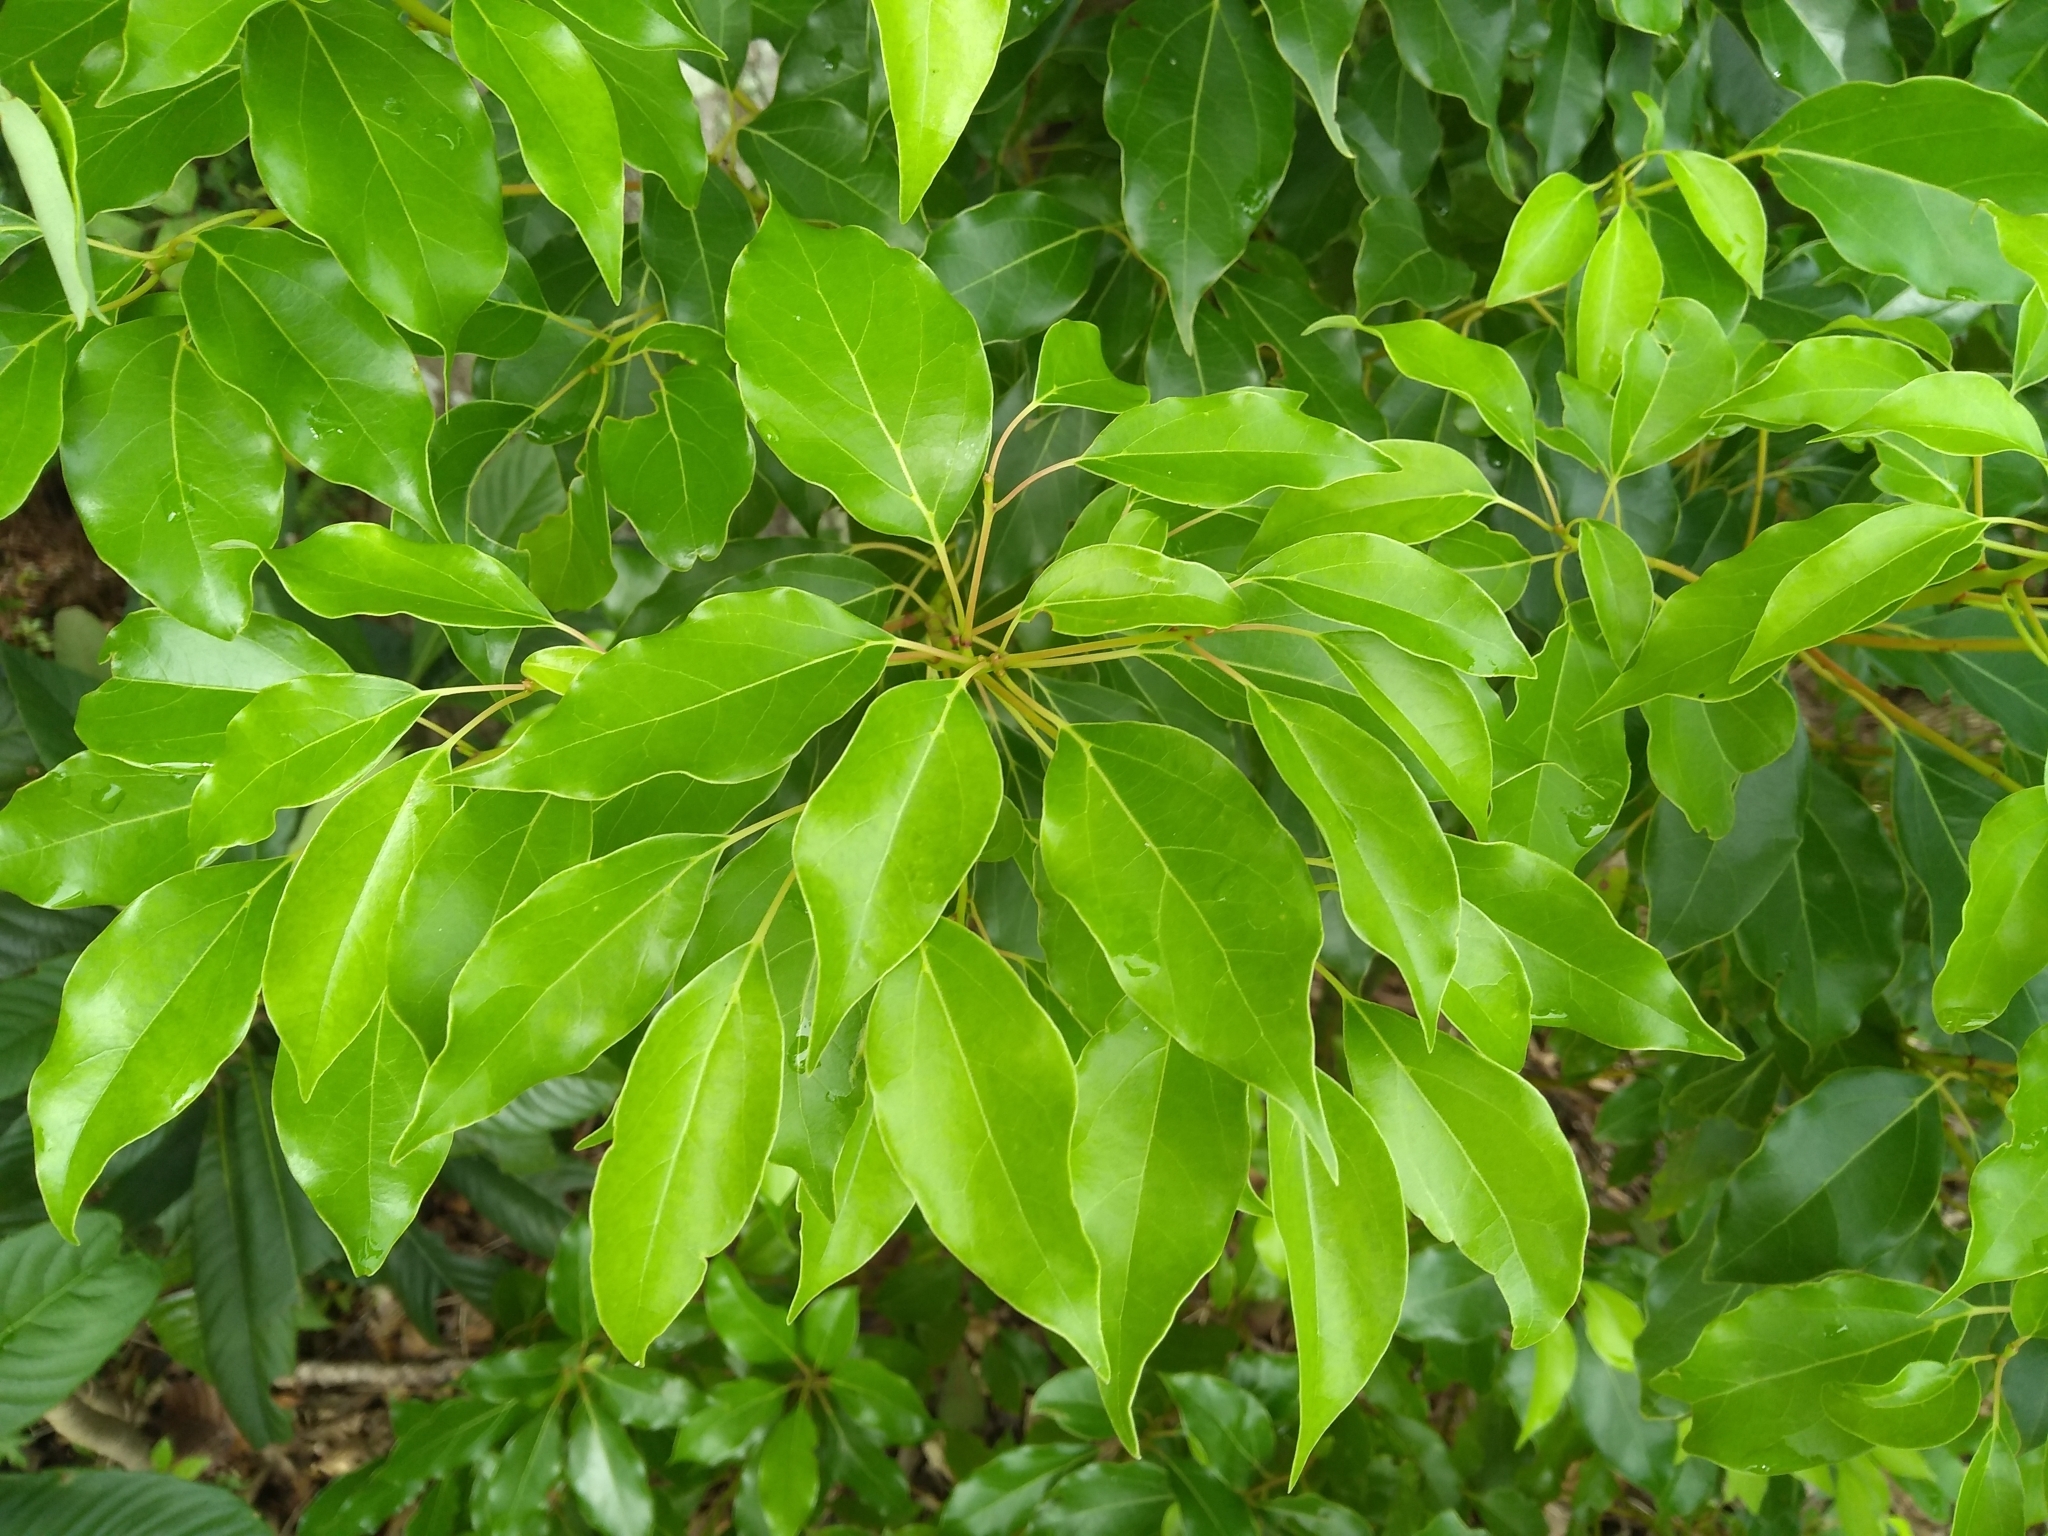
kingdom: Plantae
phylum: Tracheophyta
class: Magnoliopsida
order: Laurales
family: Lauraceae
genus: Cinnamomum
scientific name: Cinnamomum camphora
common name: Camphortree
